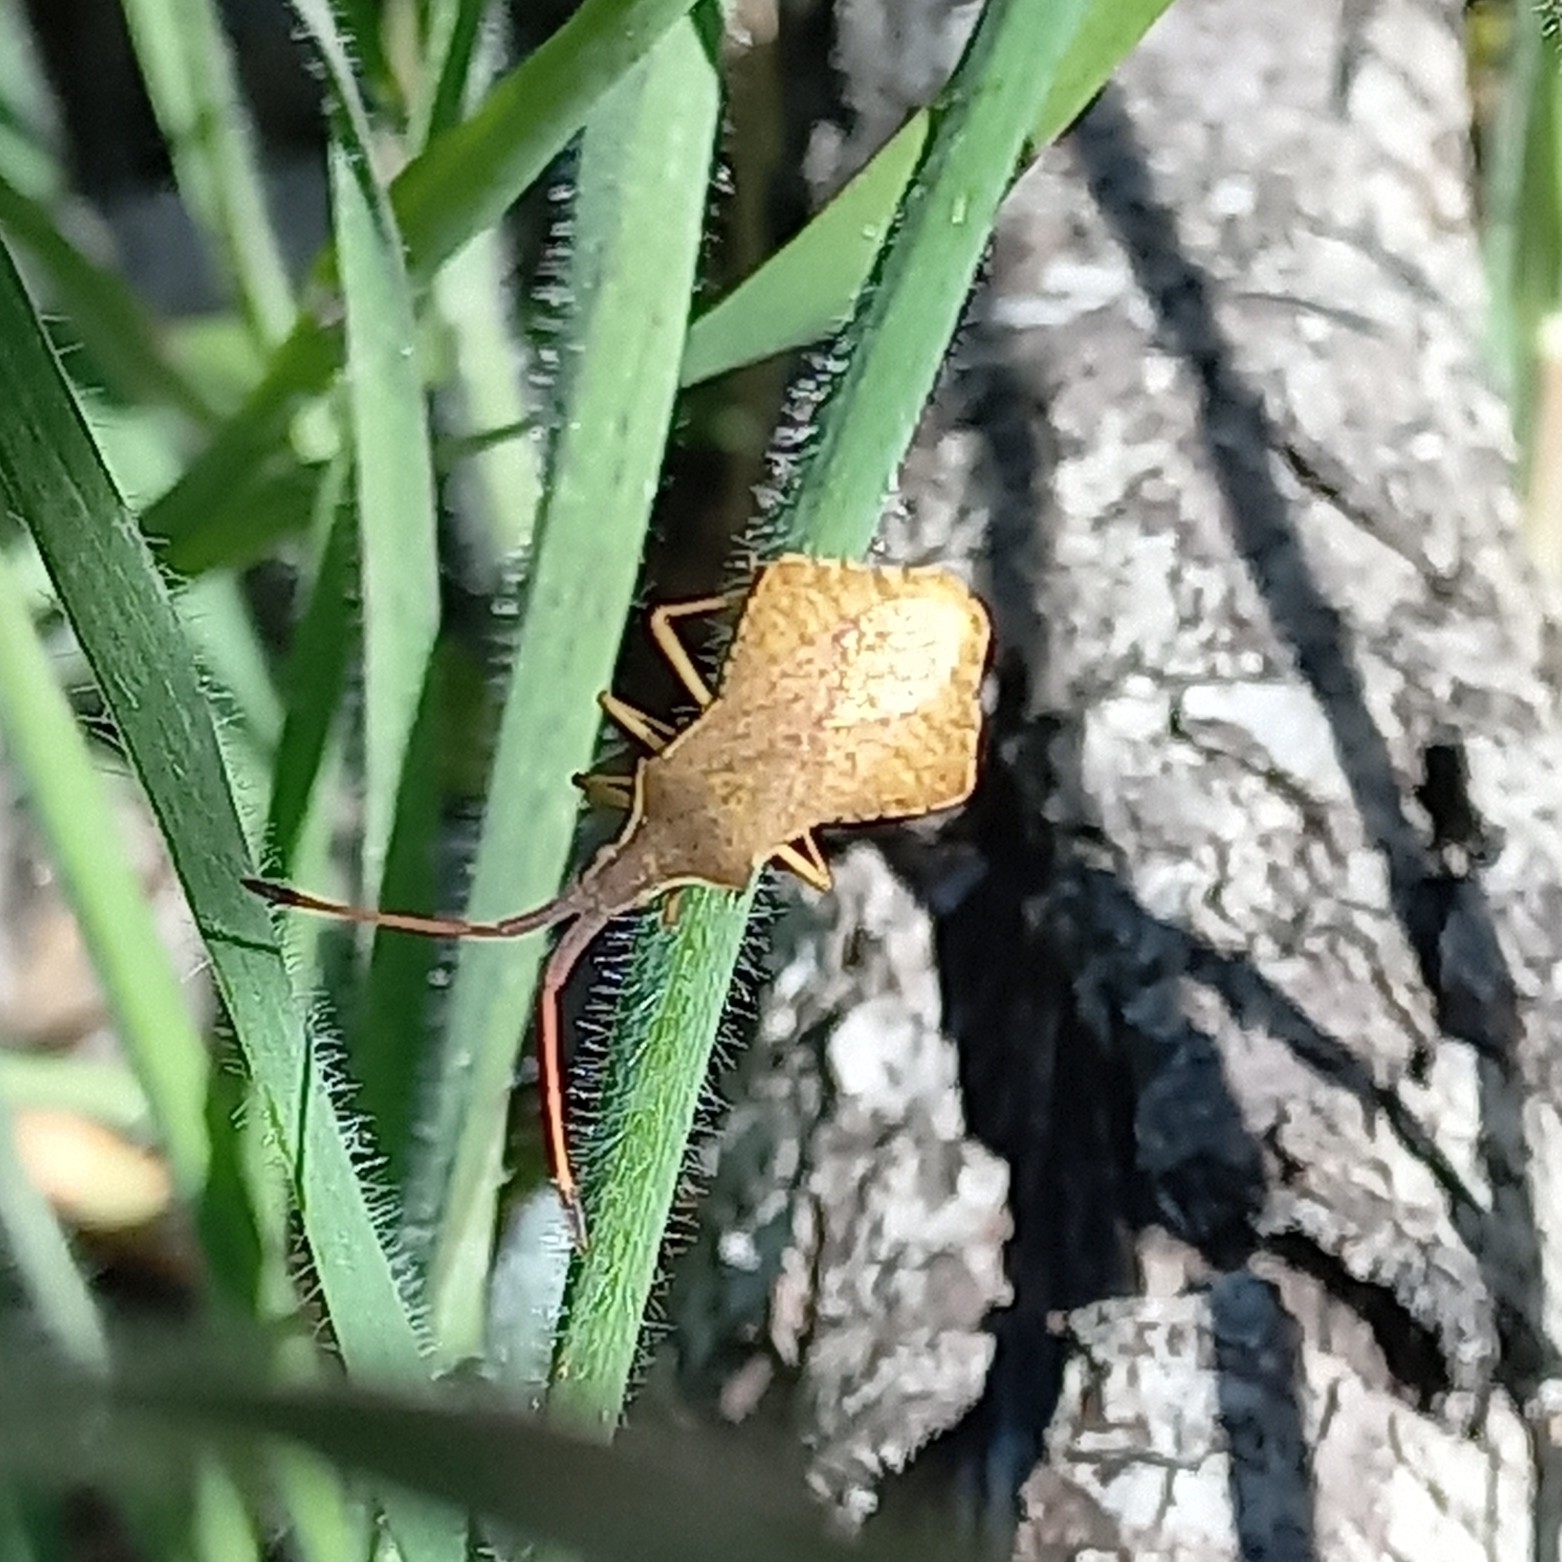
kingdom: Animalia
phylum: Arthropoda
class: Insecta
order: Hemiptera
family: Coreidae
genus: Syromastus
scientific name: Syromastus rhombeus
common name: Rhombic leatherbug
